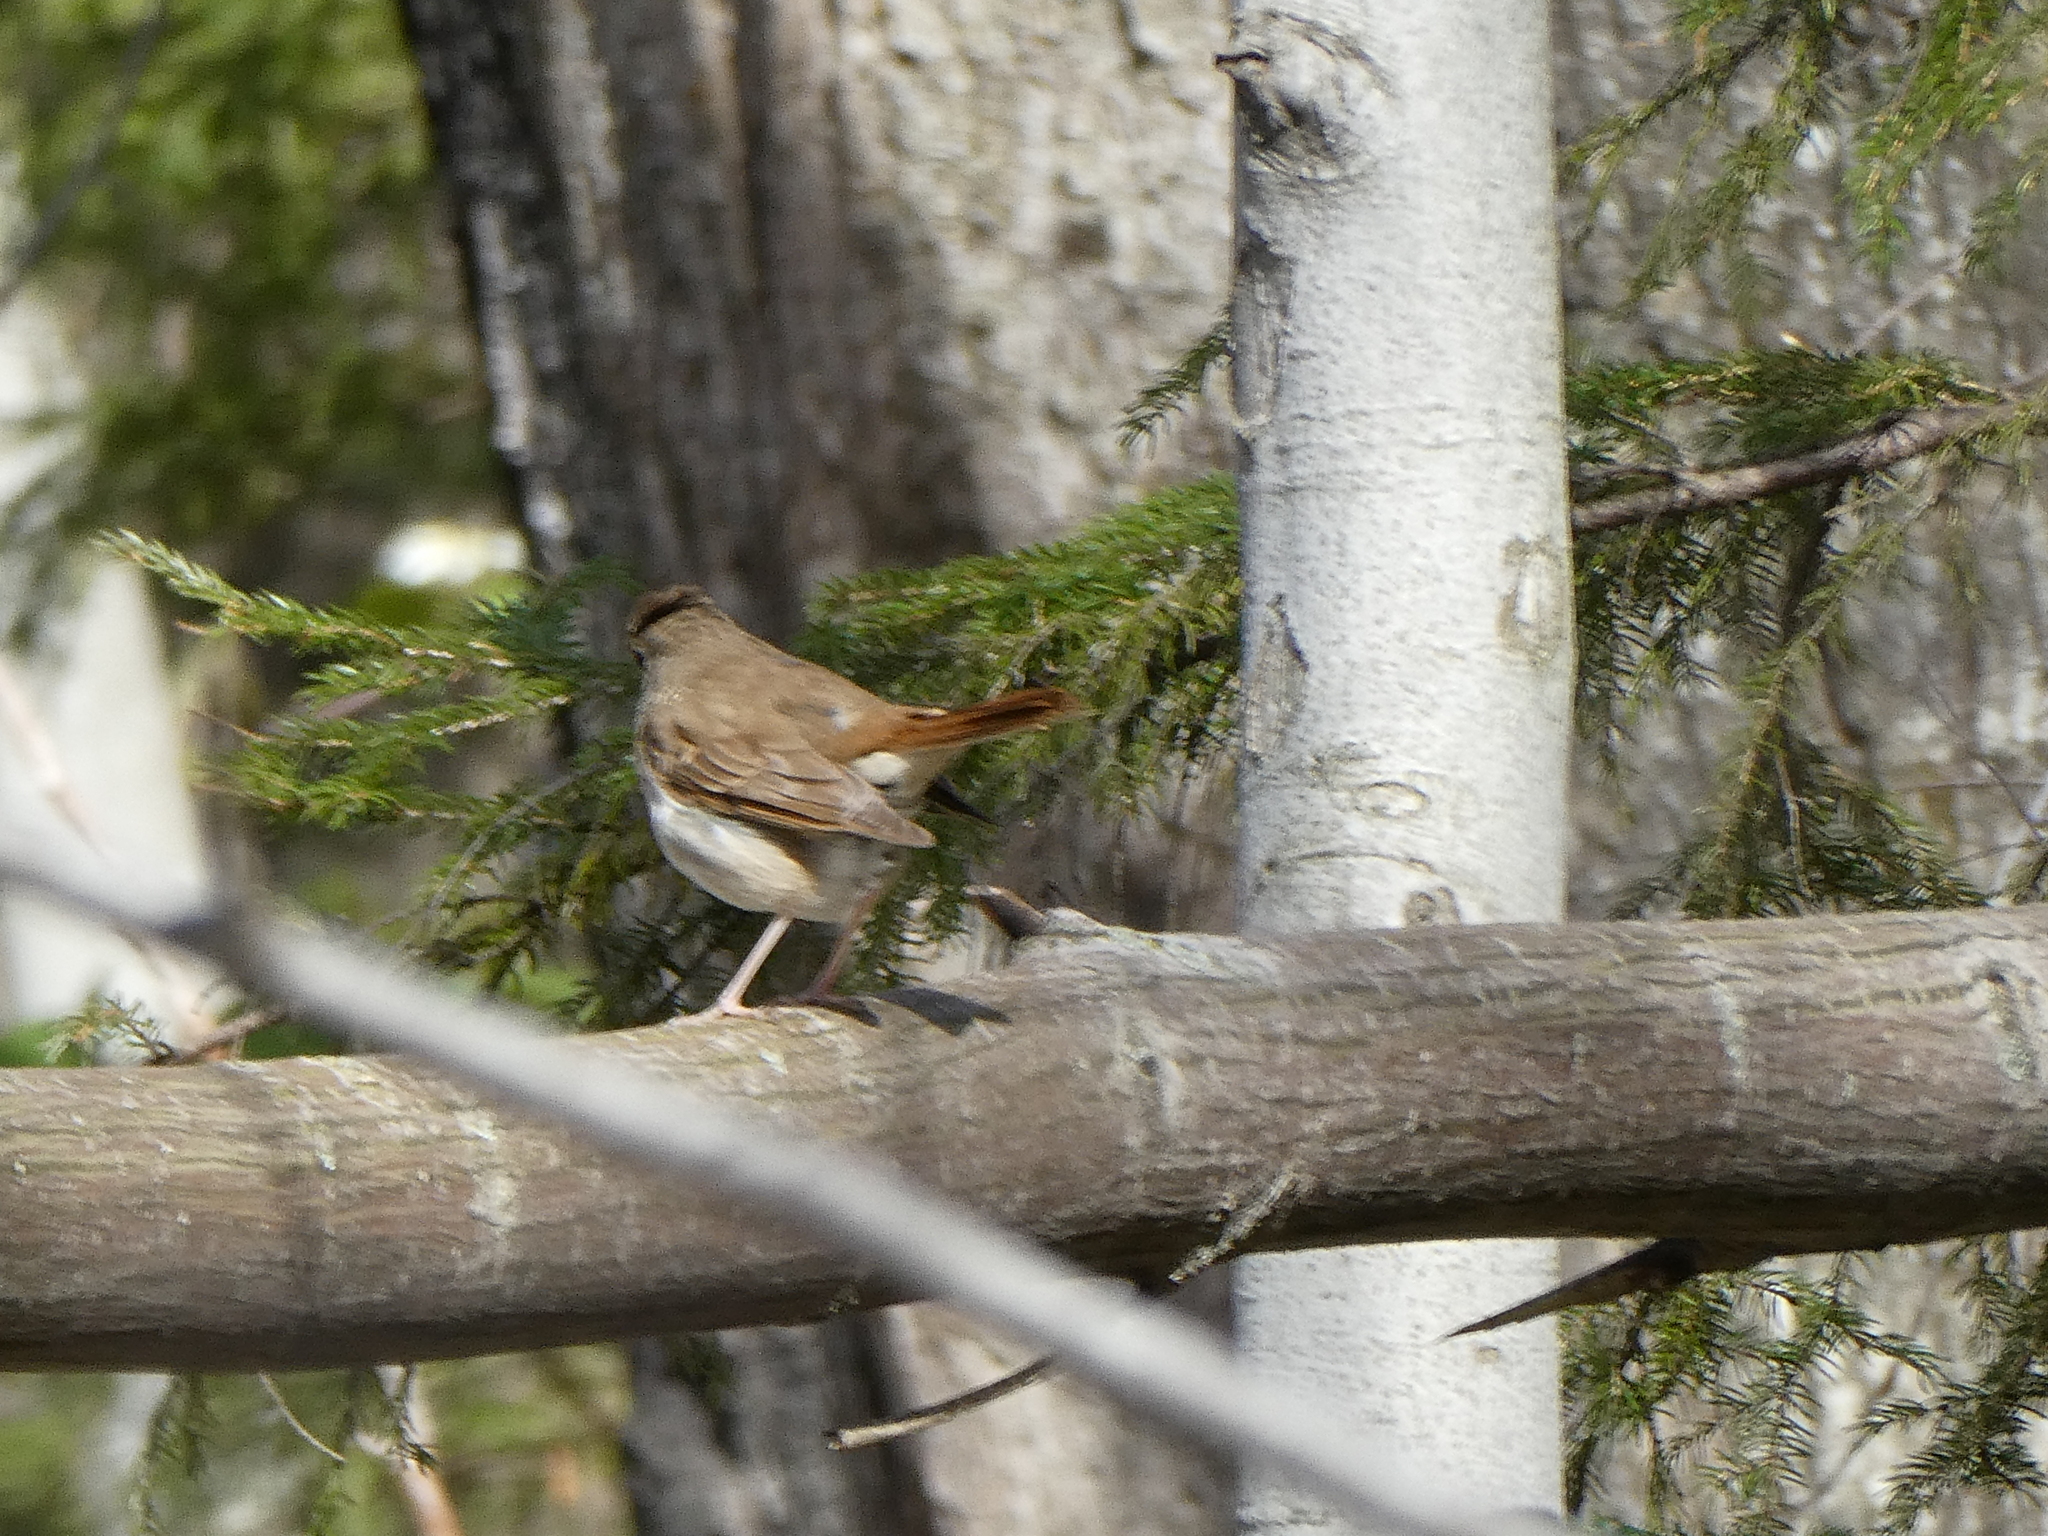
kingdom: Animalia
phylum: Chordata
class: Aves
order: Passeriformes
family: Turdidae
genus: Catharus
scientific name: Catharus guttatus
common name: Hermit thrush
